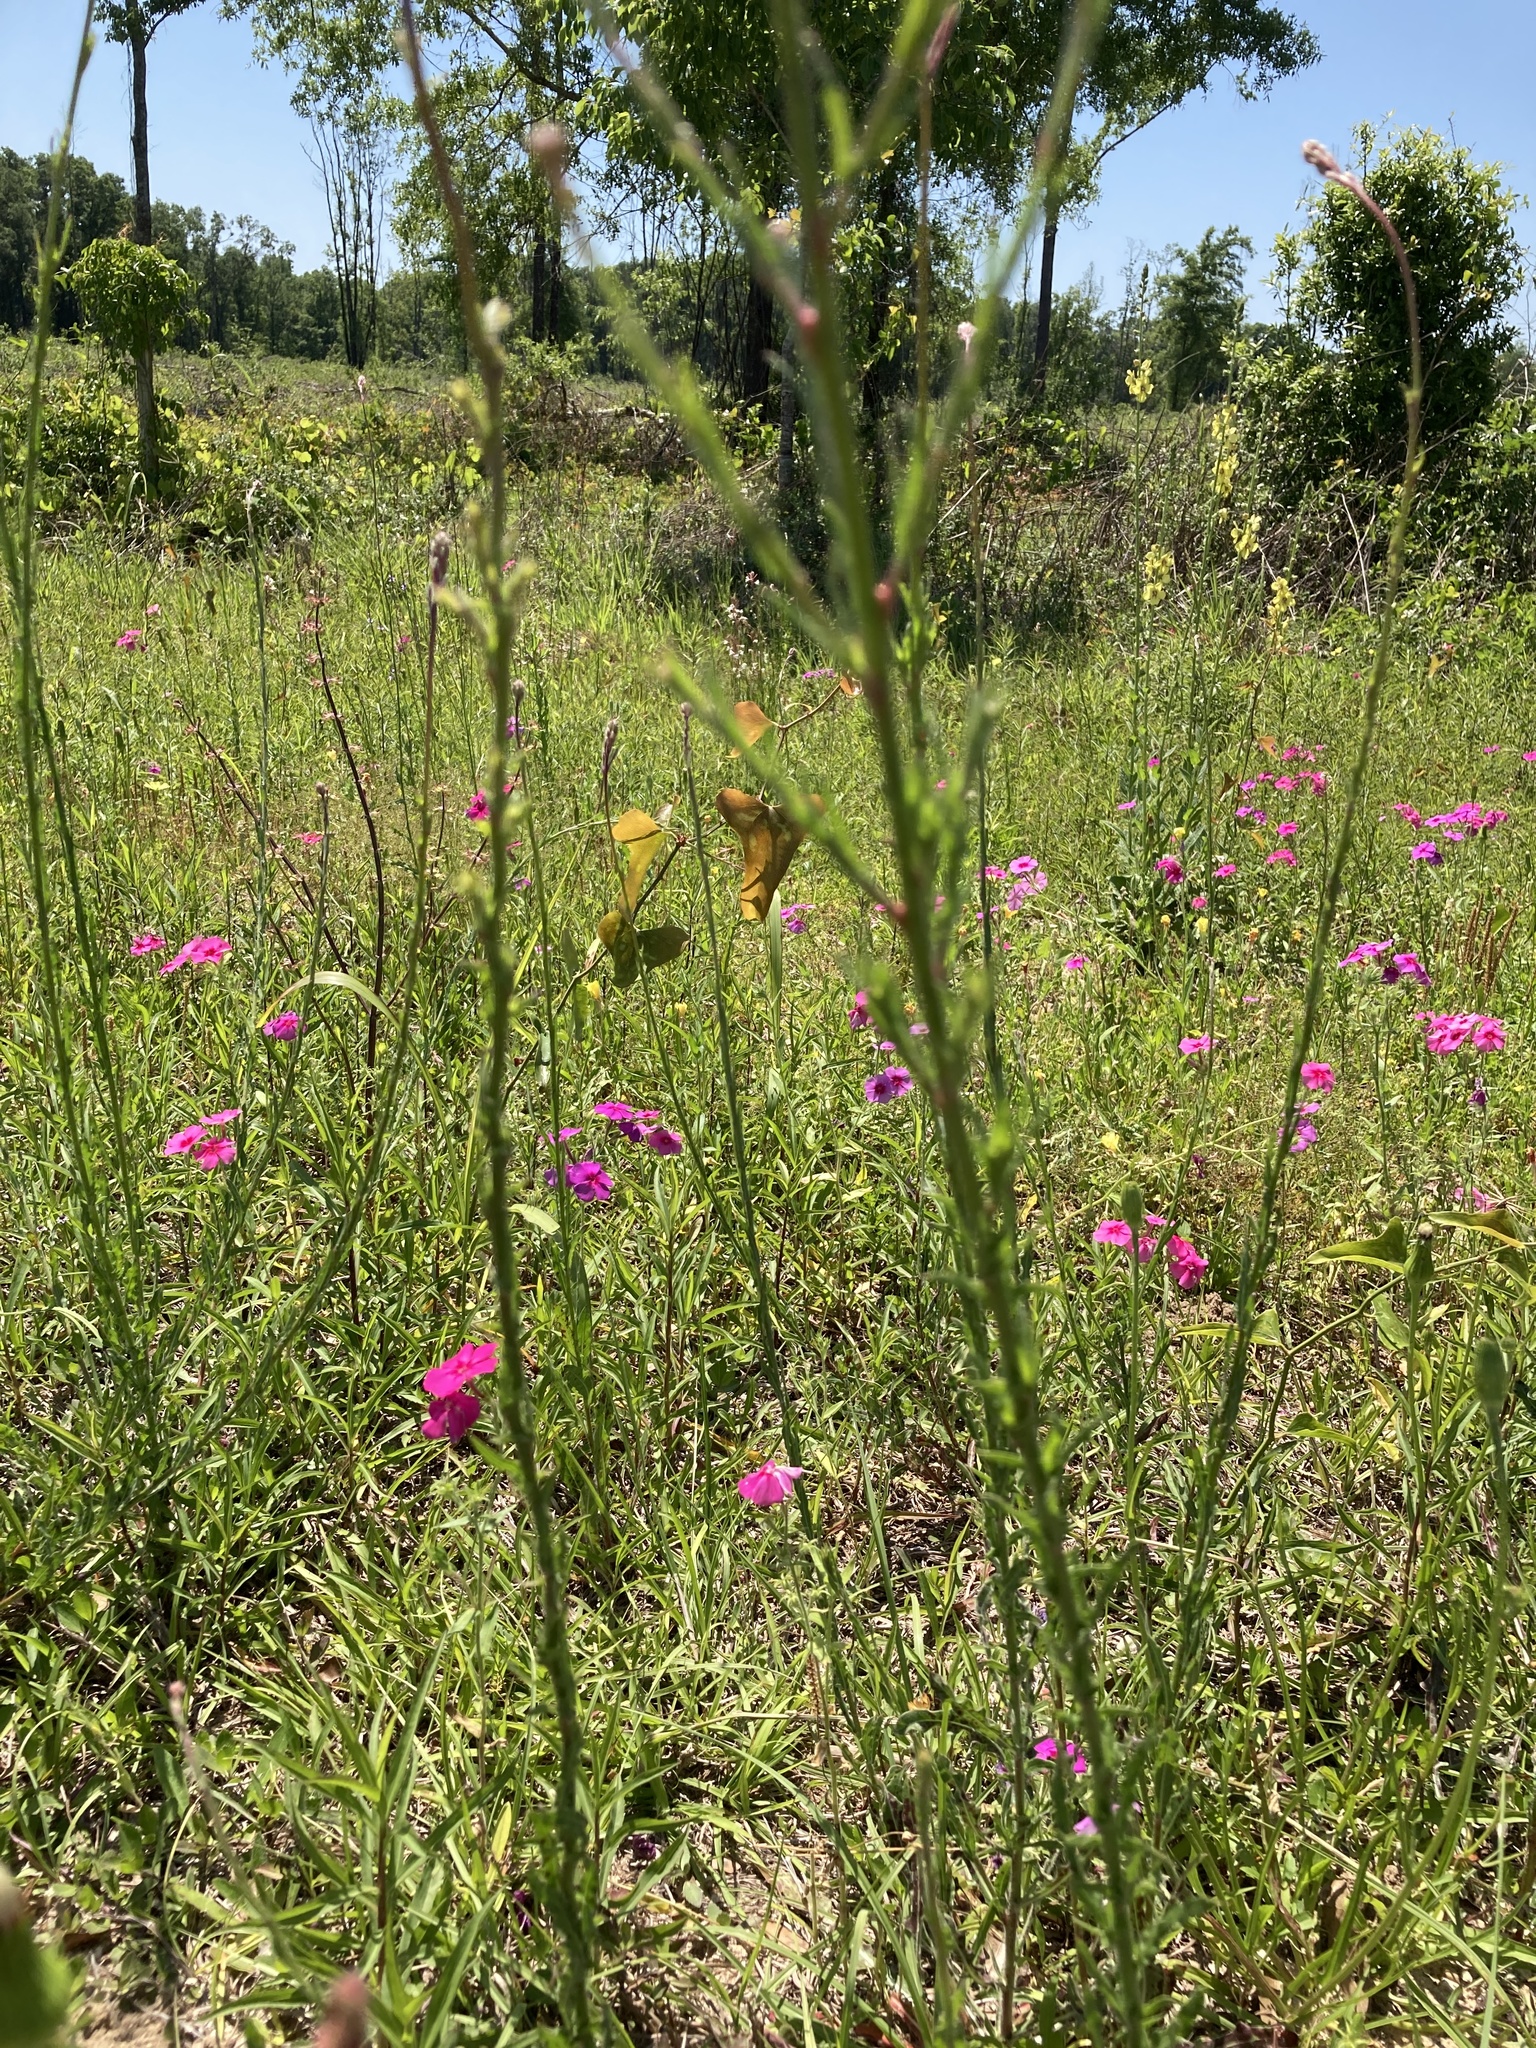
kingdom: Plantae
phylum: Tracheophyta
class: Magnoliopsida
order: Myrtales
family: Onagraceae
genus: Oenothera
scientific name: Oenothera simulans
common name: Southern beeblossom
